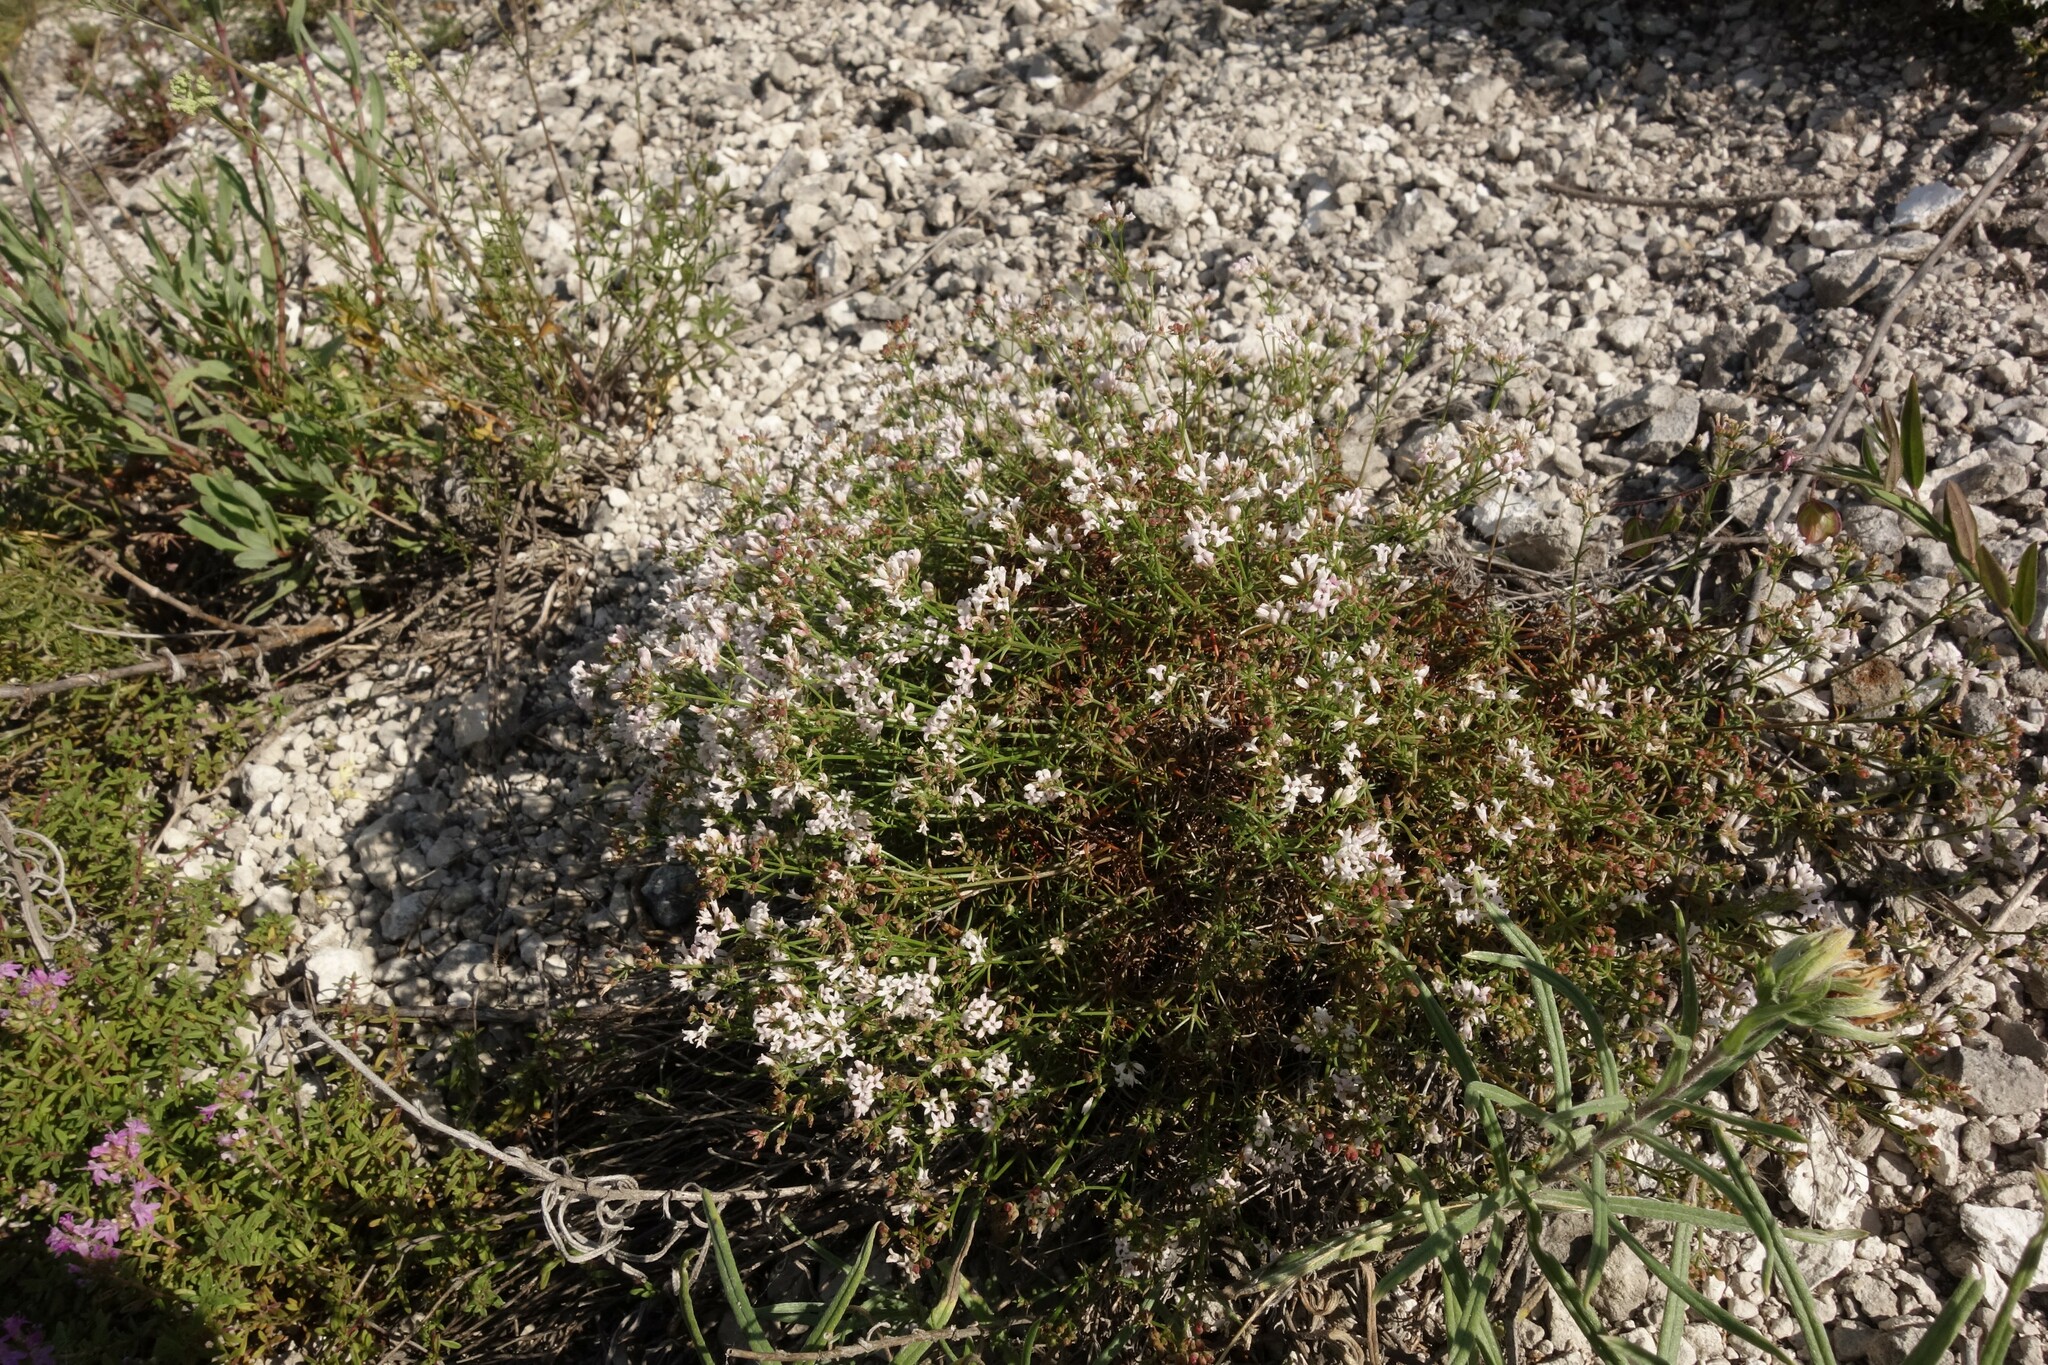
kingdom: Plantae
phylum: Tracheophyta
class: Magnoliopsida
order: Gentianales
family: Rubiaceae
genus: Cynanchica
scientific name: Cynanchica tephrocarpa
